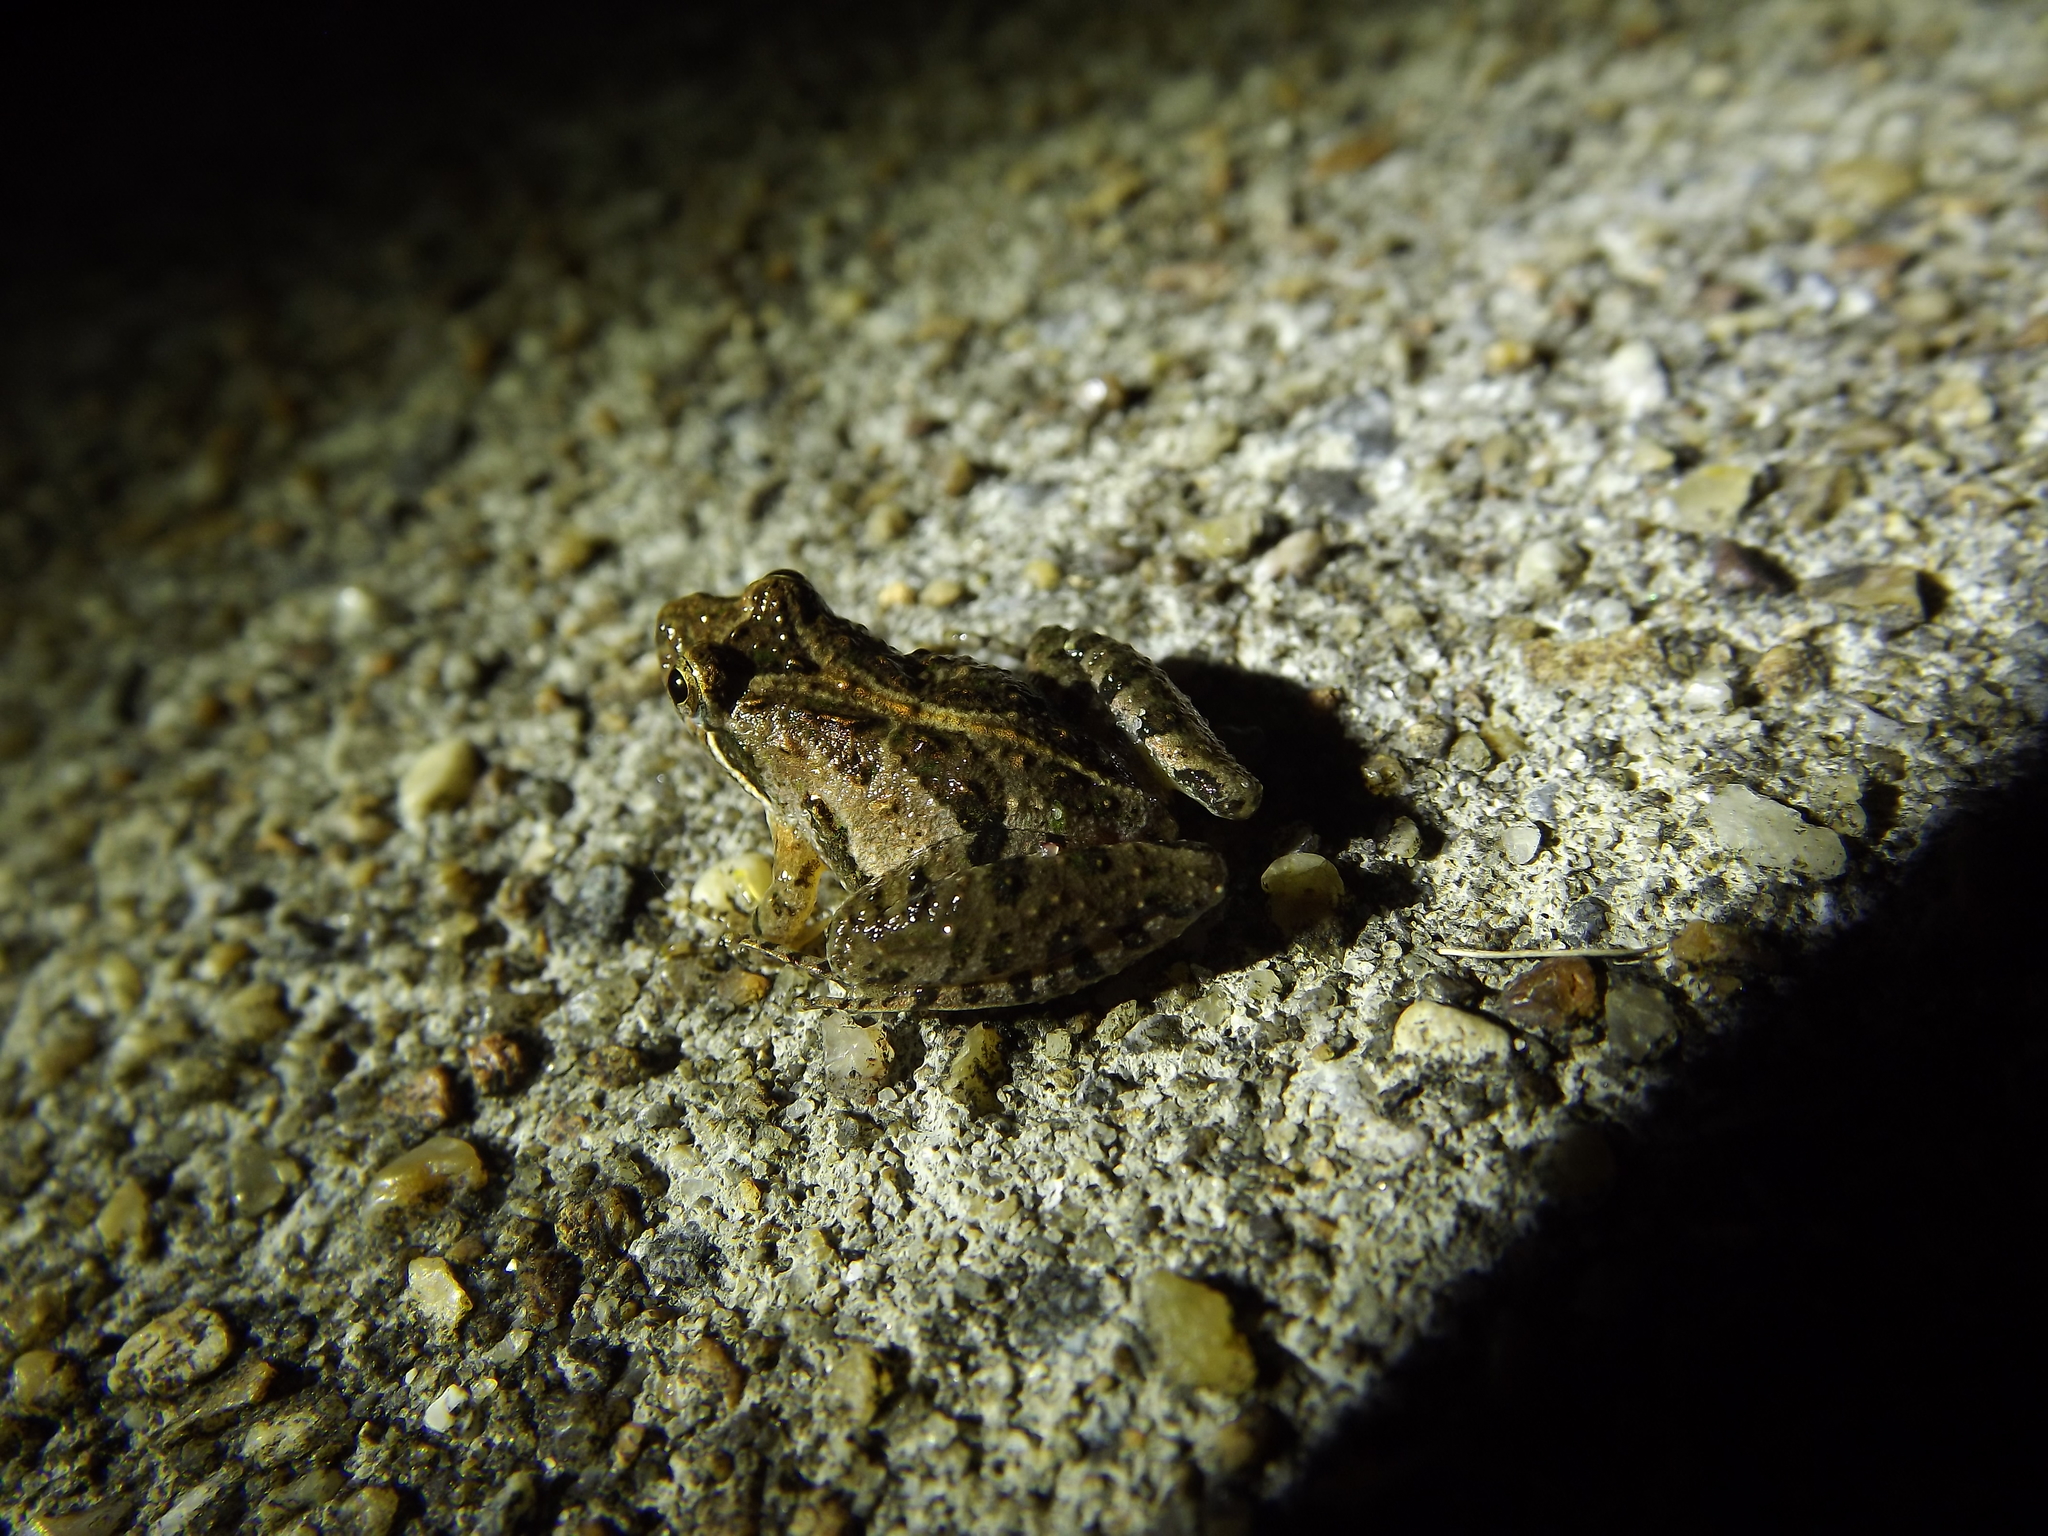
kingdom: Animalia
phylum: Chordata
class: Amphibia
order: Anura
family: Hylidae
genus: Acris
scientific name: Acris gryllus
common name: Southern cricket frog
